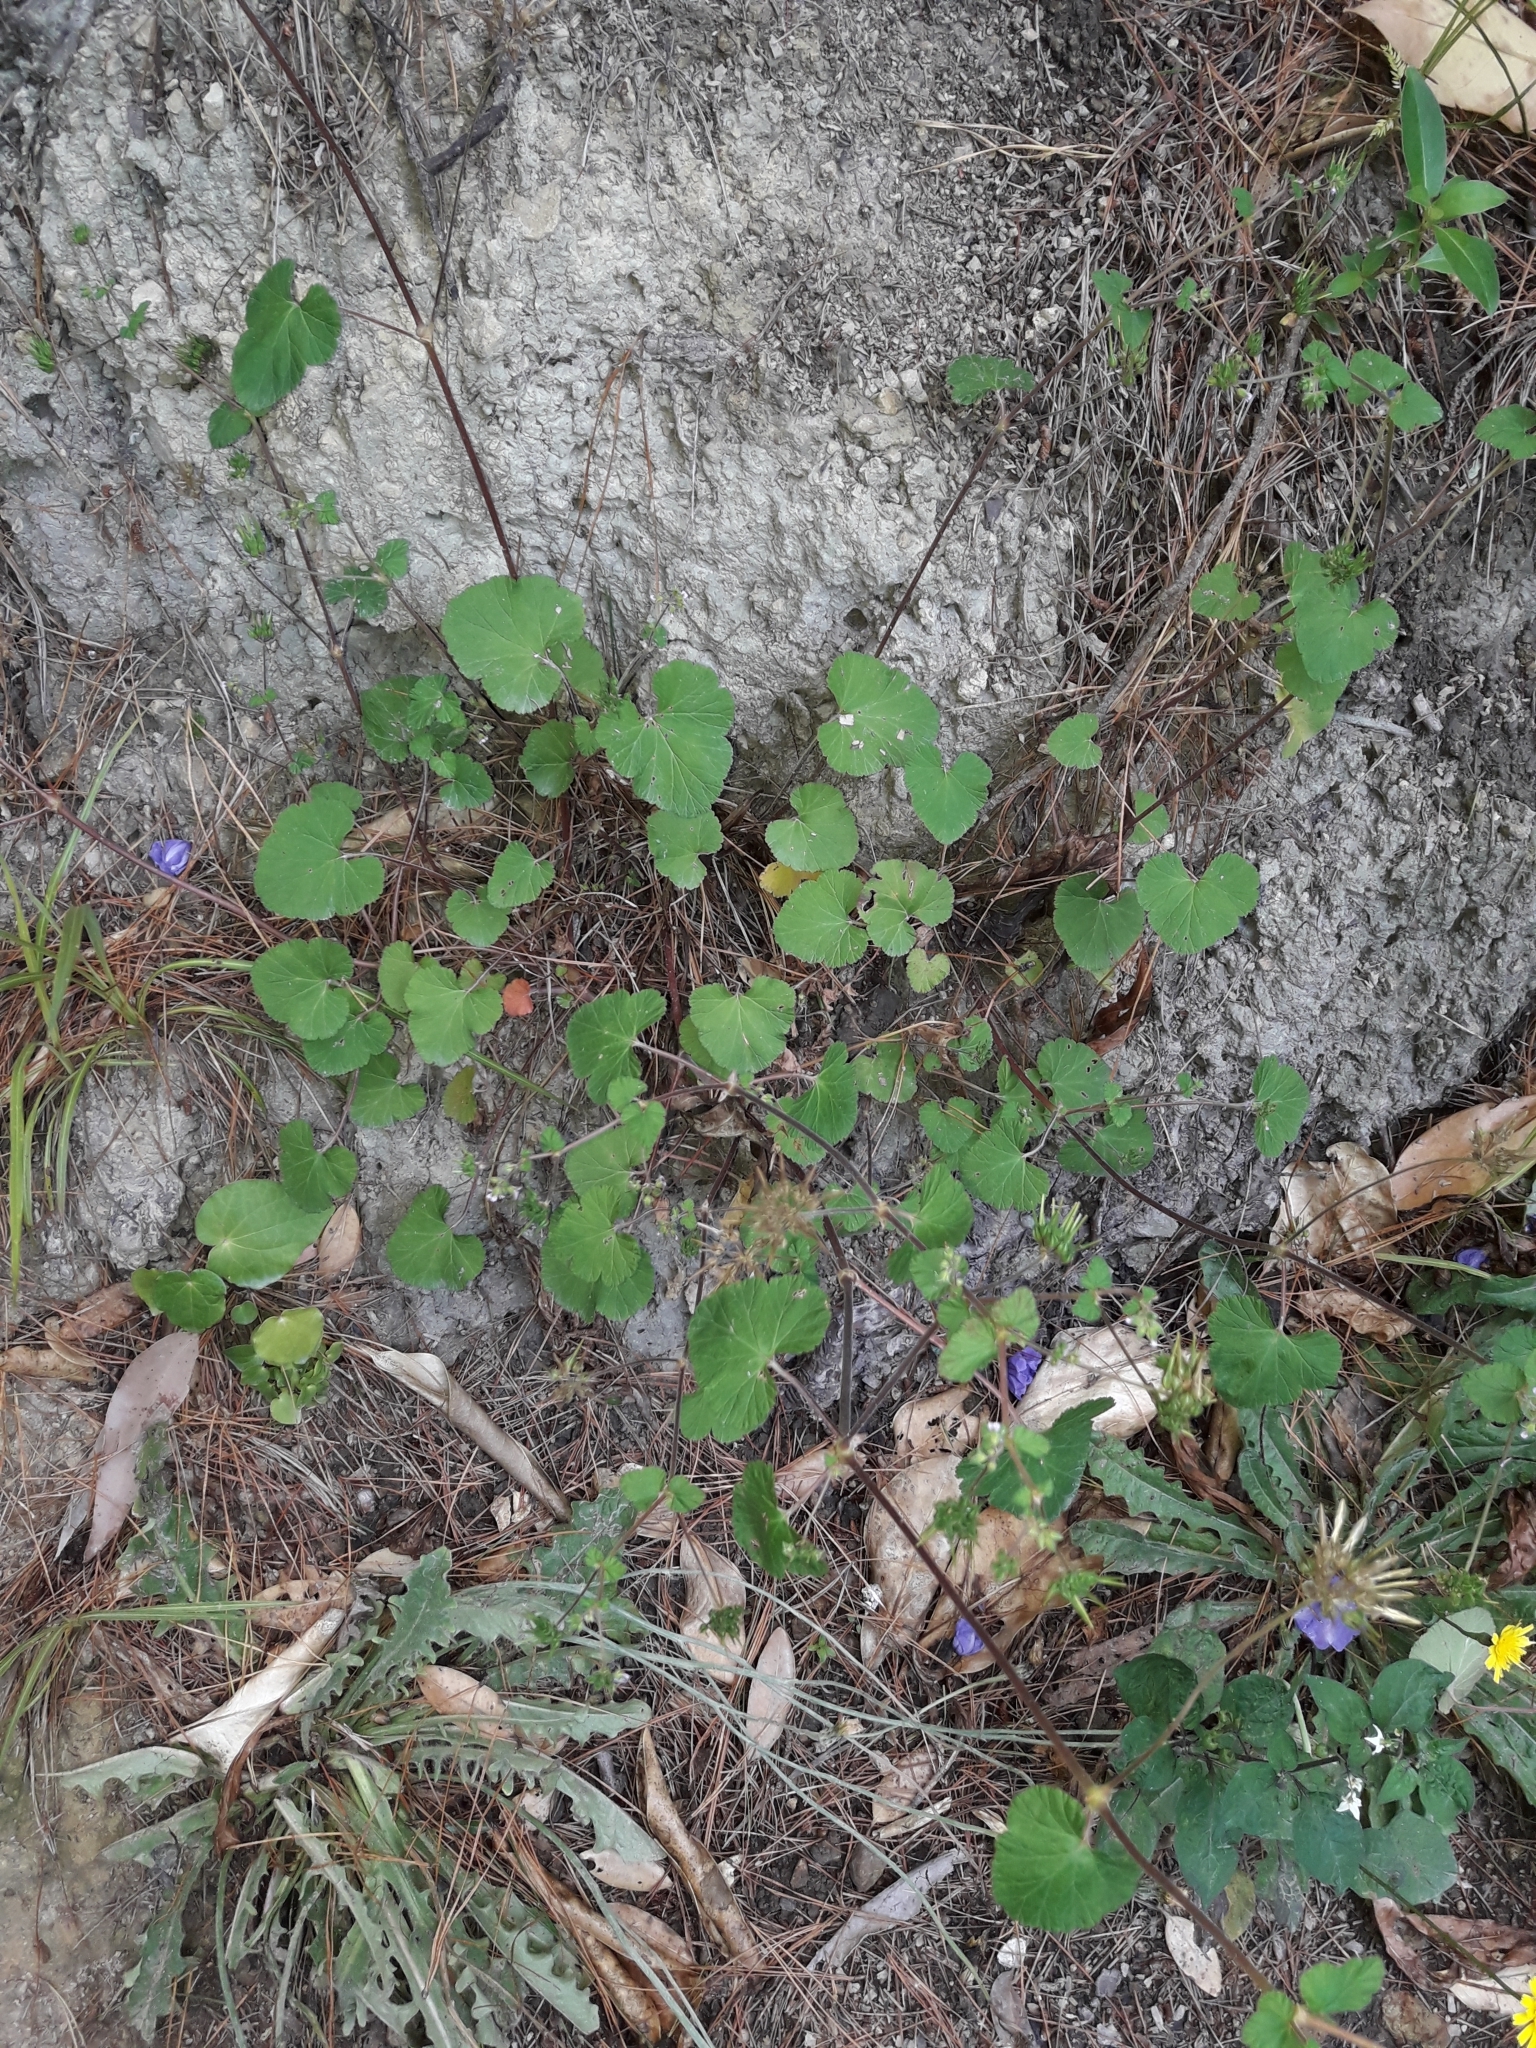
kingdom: Plantae
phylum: Tracheophyta
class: Magnoliopsida
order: Geraniales
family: Geraniaceae
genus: Pelargonium
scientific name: Pelargonium inodorum
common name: Kopata geranium
